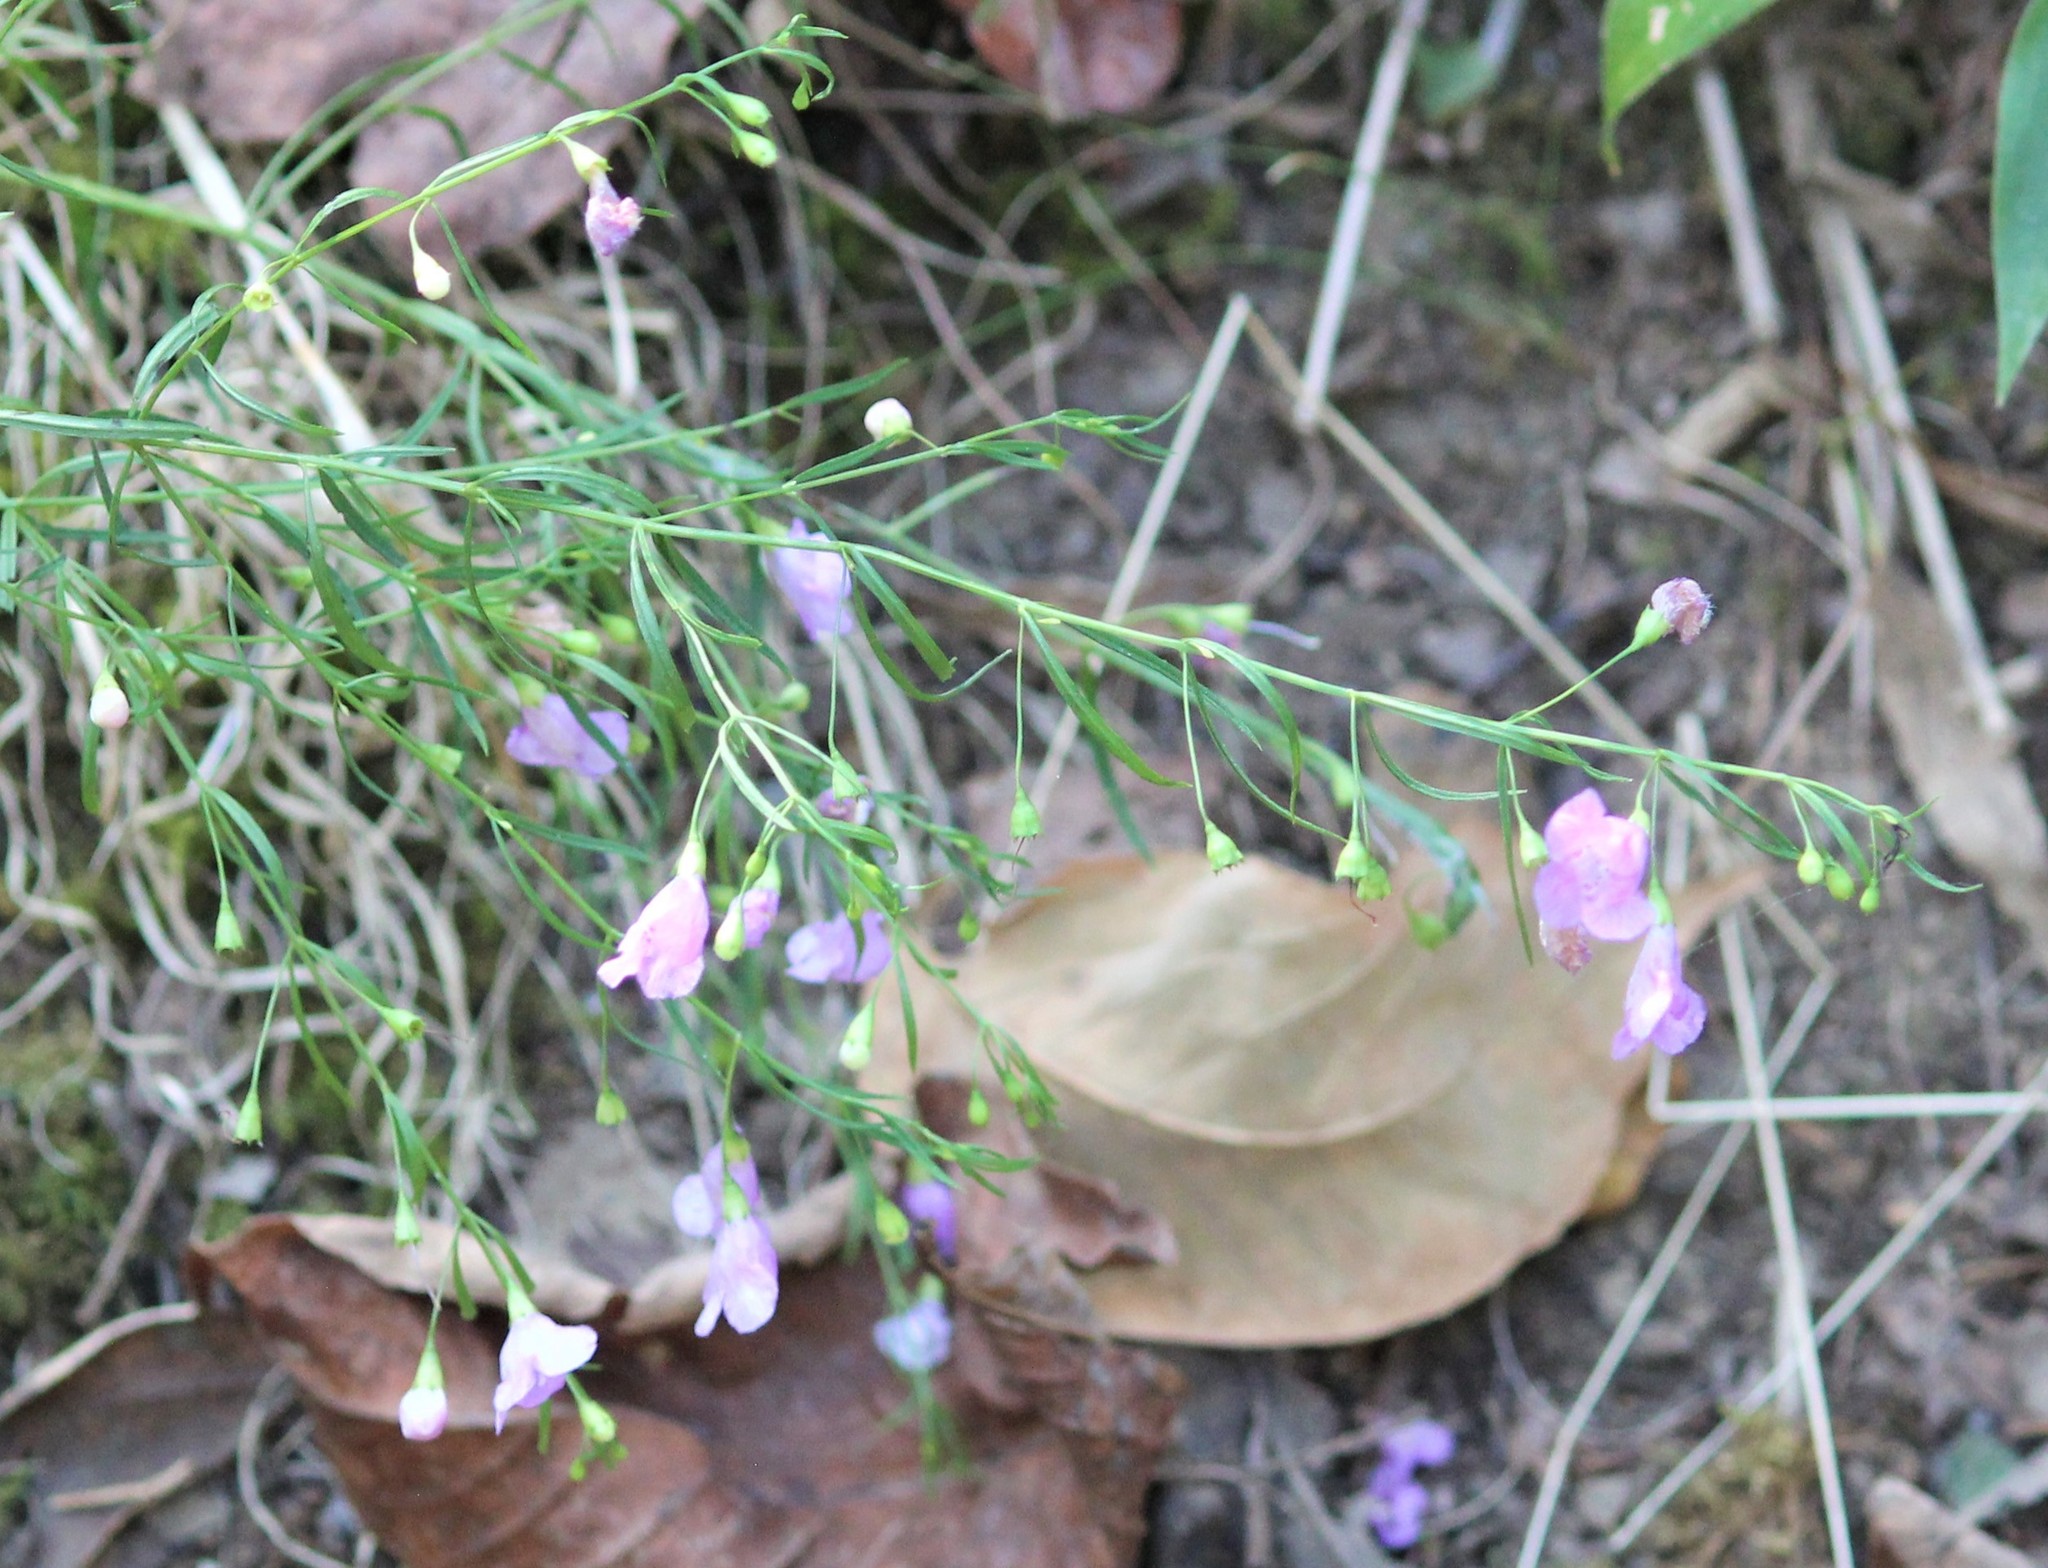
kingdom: Plantae
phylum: Tracheophyta
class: Magnoliopsida
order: Lamiales
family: Orobanchaceae
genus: Agalinis
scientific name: Agalinis tenuifolia
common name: Slender agalinis
